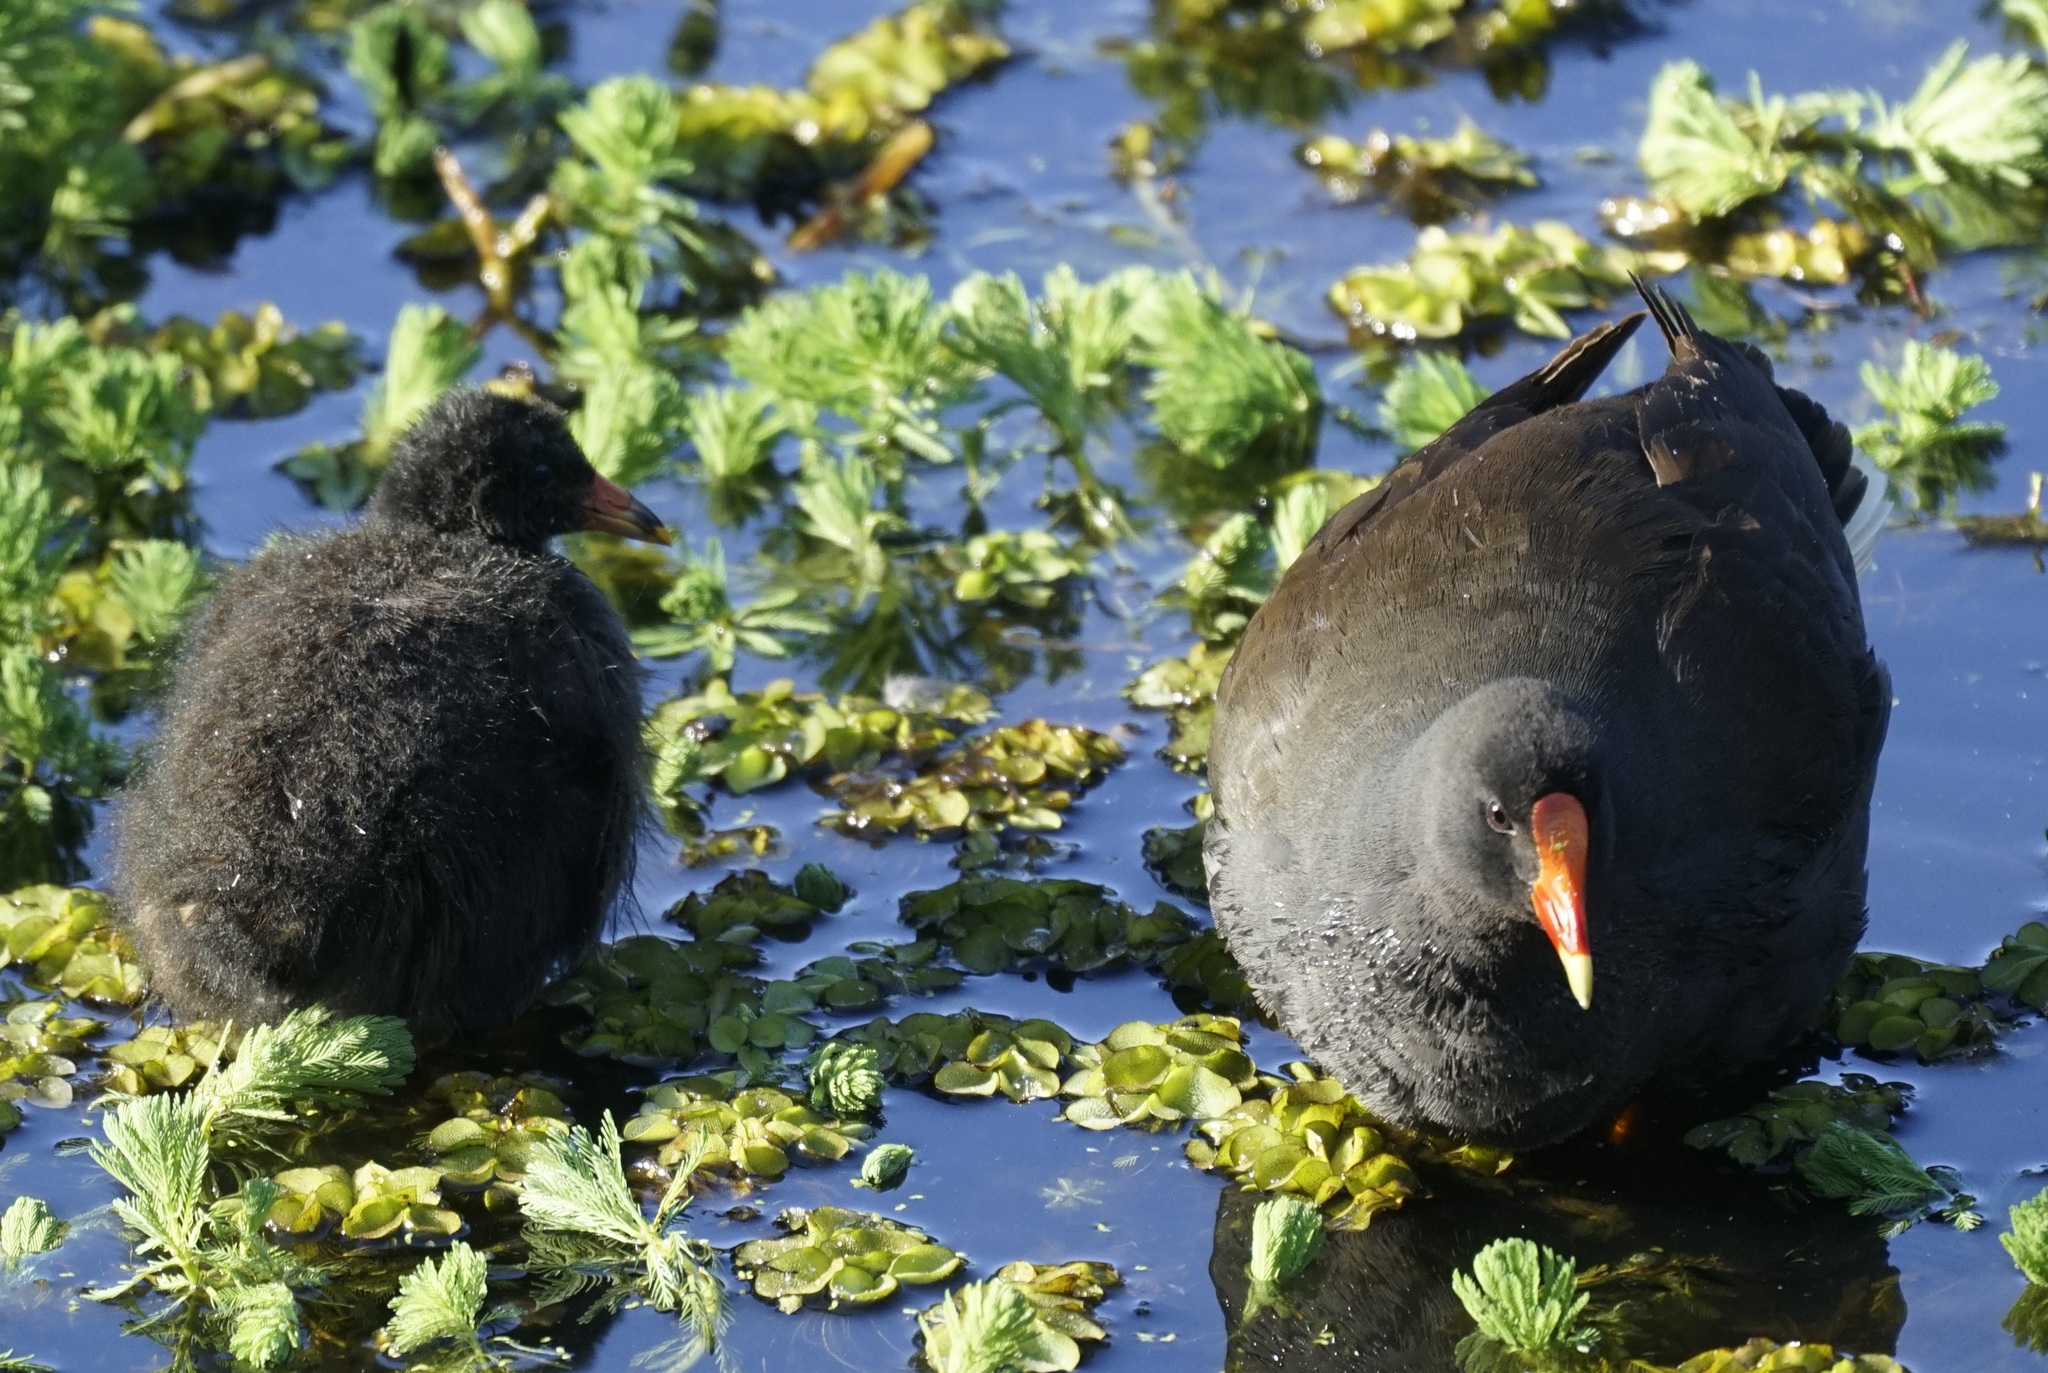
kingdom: Animalia
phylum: Chordata
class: Aves
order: Gruiformes
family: Rallidae
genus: Gallinula
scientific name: Gallinula tenebrosa
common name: Dusky moorhen
